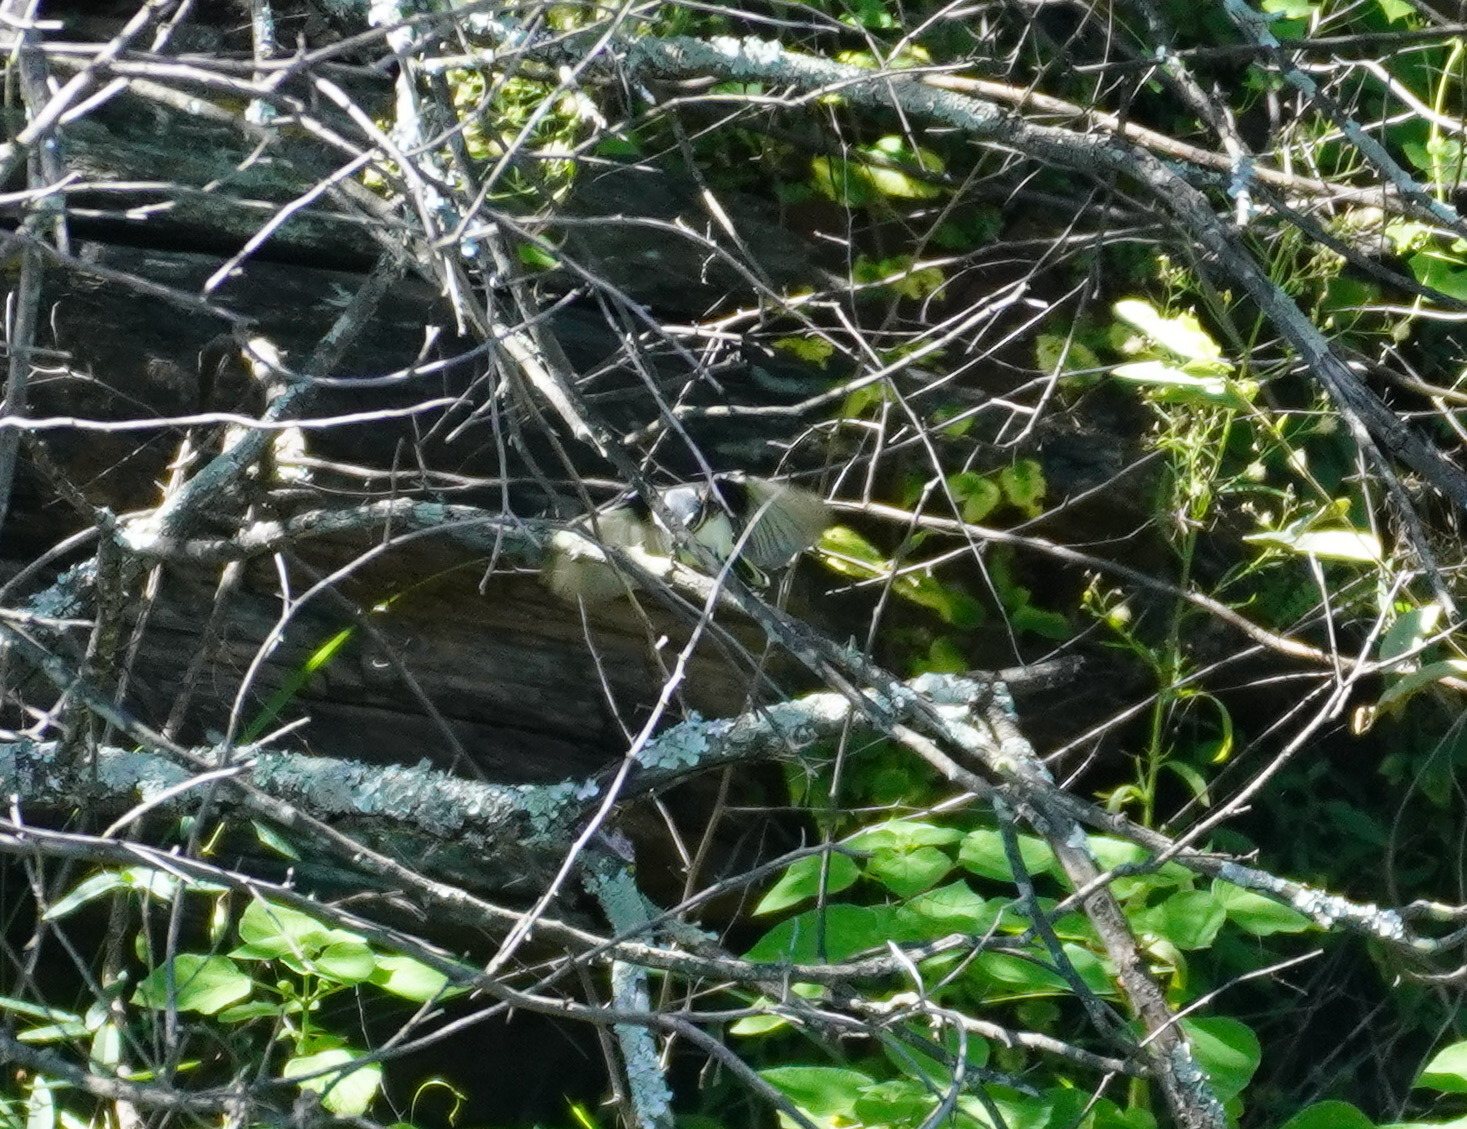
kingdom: Animalia
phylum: Chordata
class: Aves
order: Passeriformes
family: Platysteiridae
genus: Batis
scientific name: Batis molitor
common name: Chinspot batis
